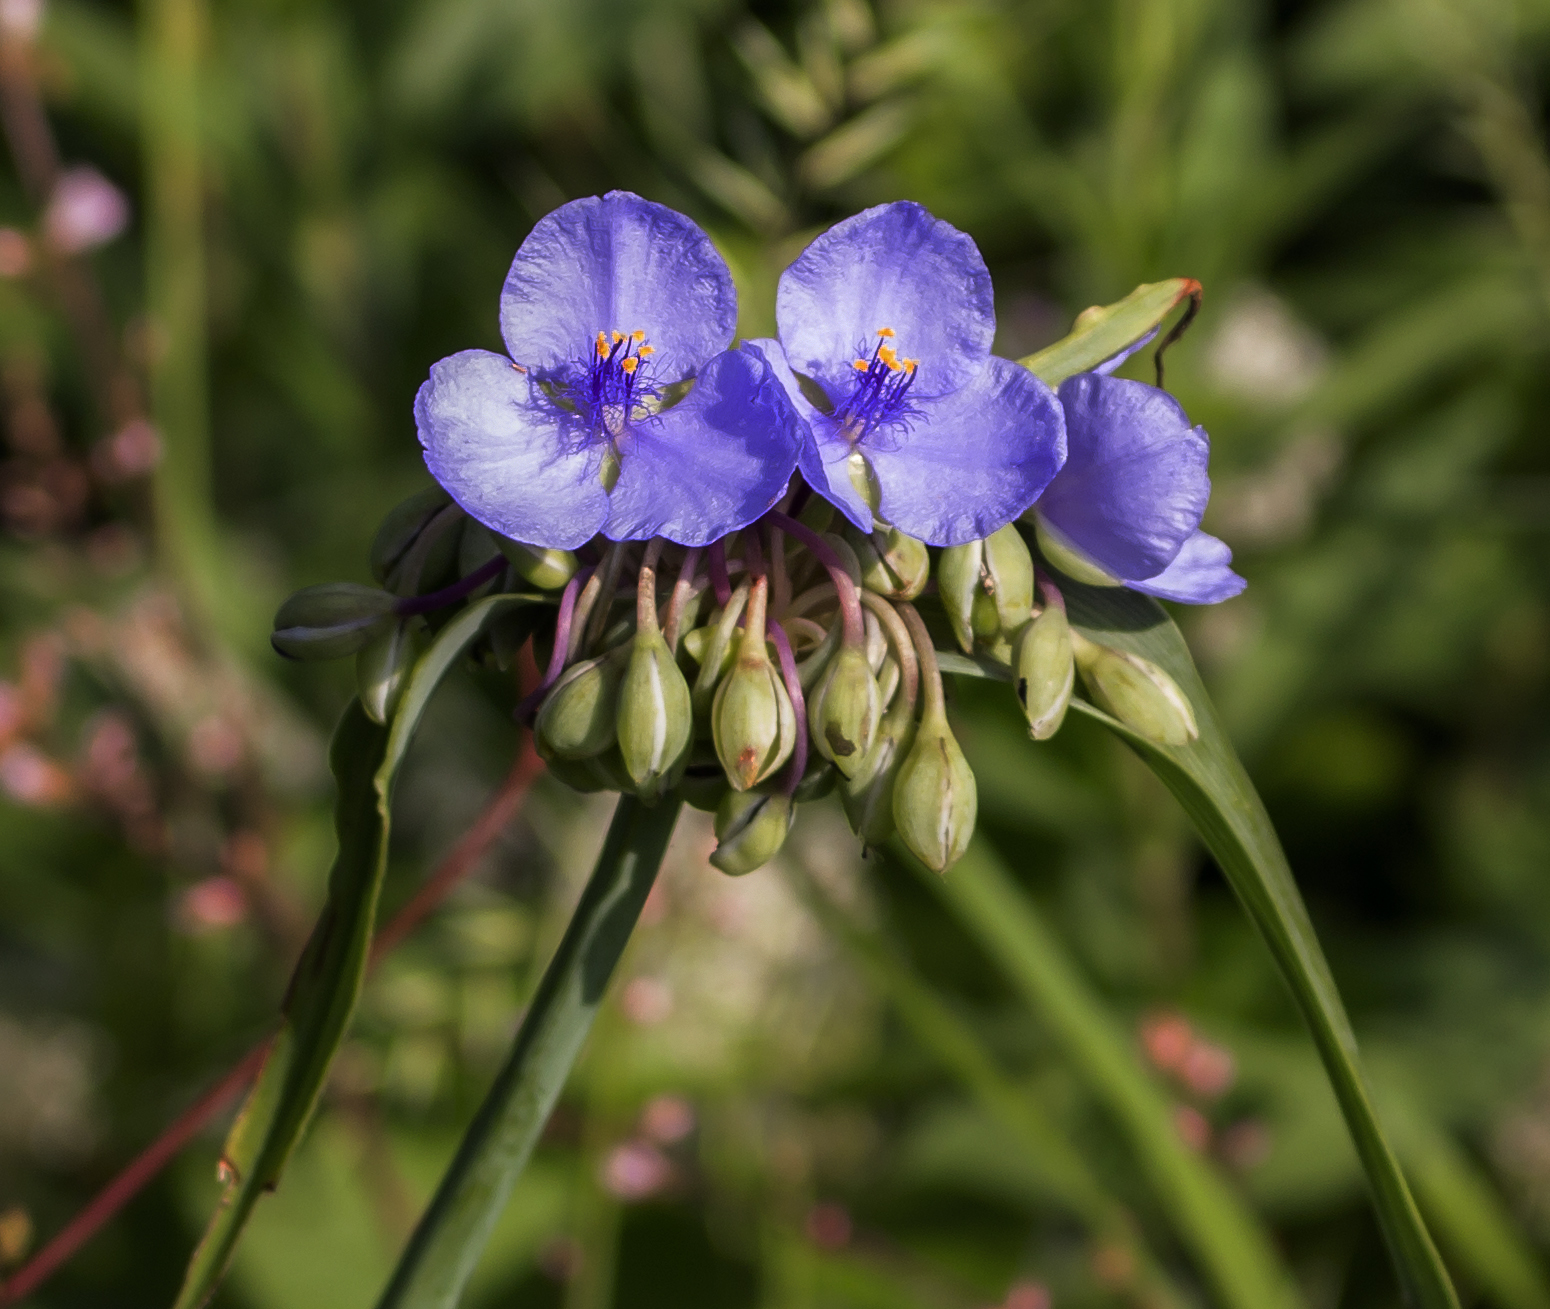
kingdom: Plantae
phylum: Tracheophyta
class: Liliopsida
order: Commelinales
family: Commelinaceae
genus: Tradescantia
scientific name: Tradescantia ohiensis
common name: Ohio spiderwort
